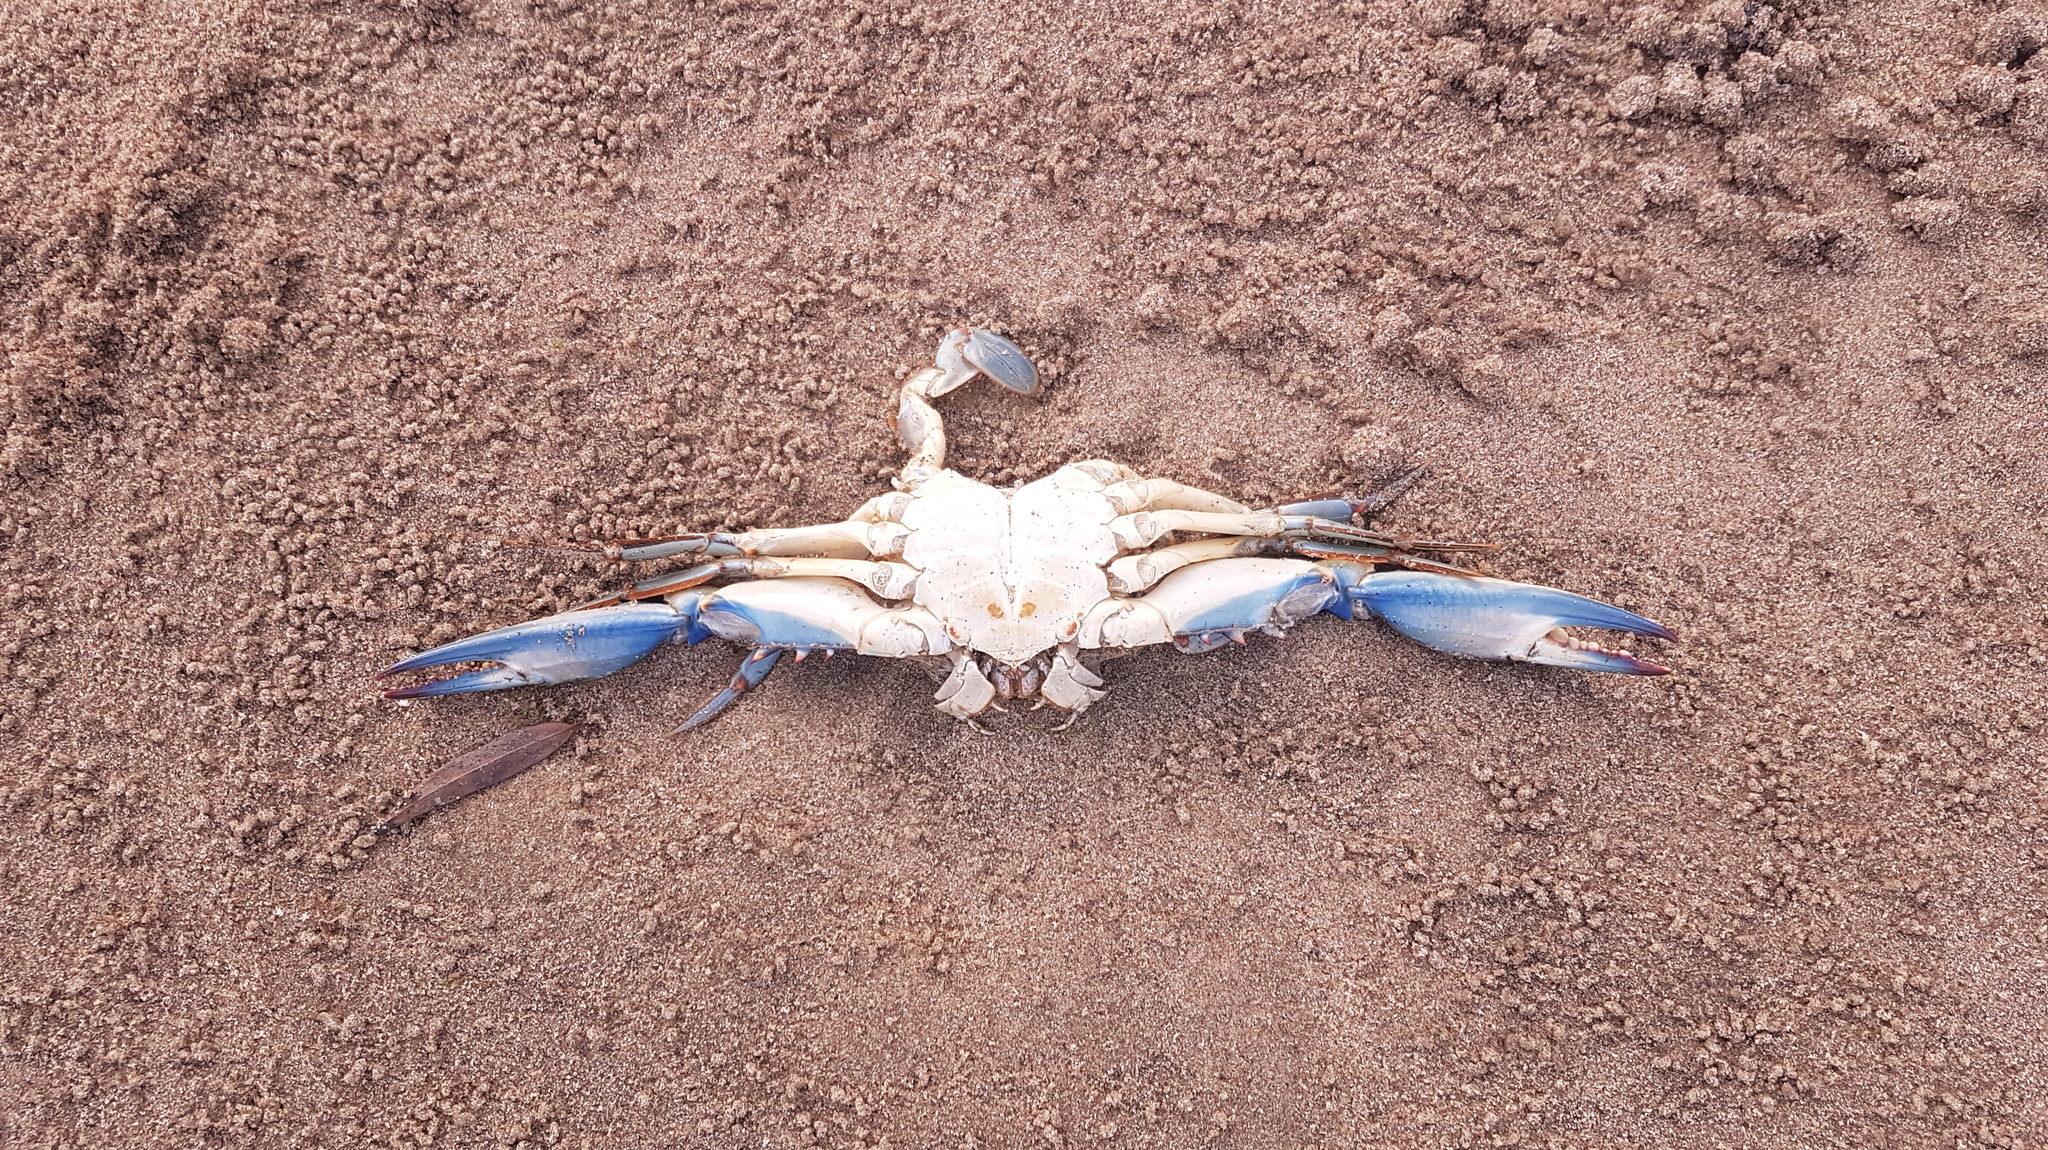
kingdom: Animalia
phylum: Arthropoda
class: Malacostraca
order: Decapoda
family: Portunidae
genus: Callinectes
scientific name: Callinectes sapidus
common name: Blue crab
